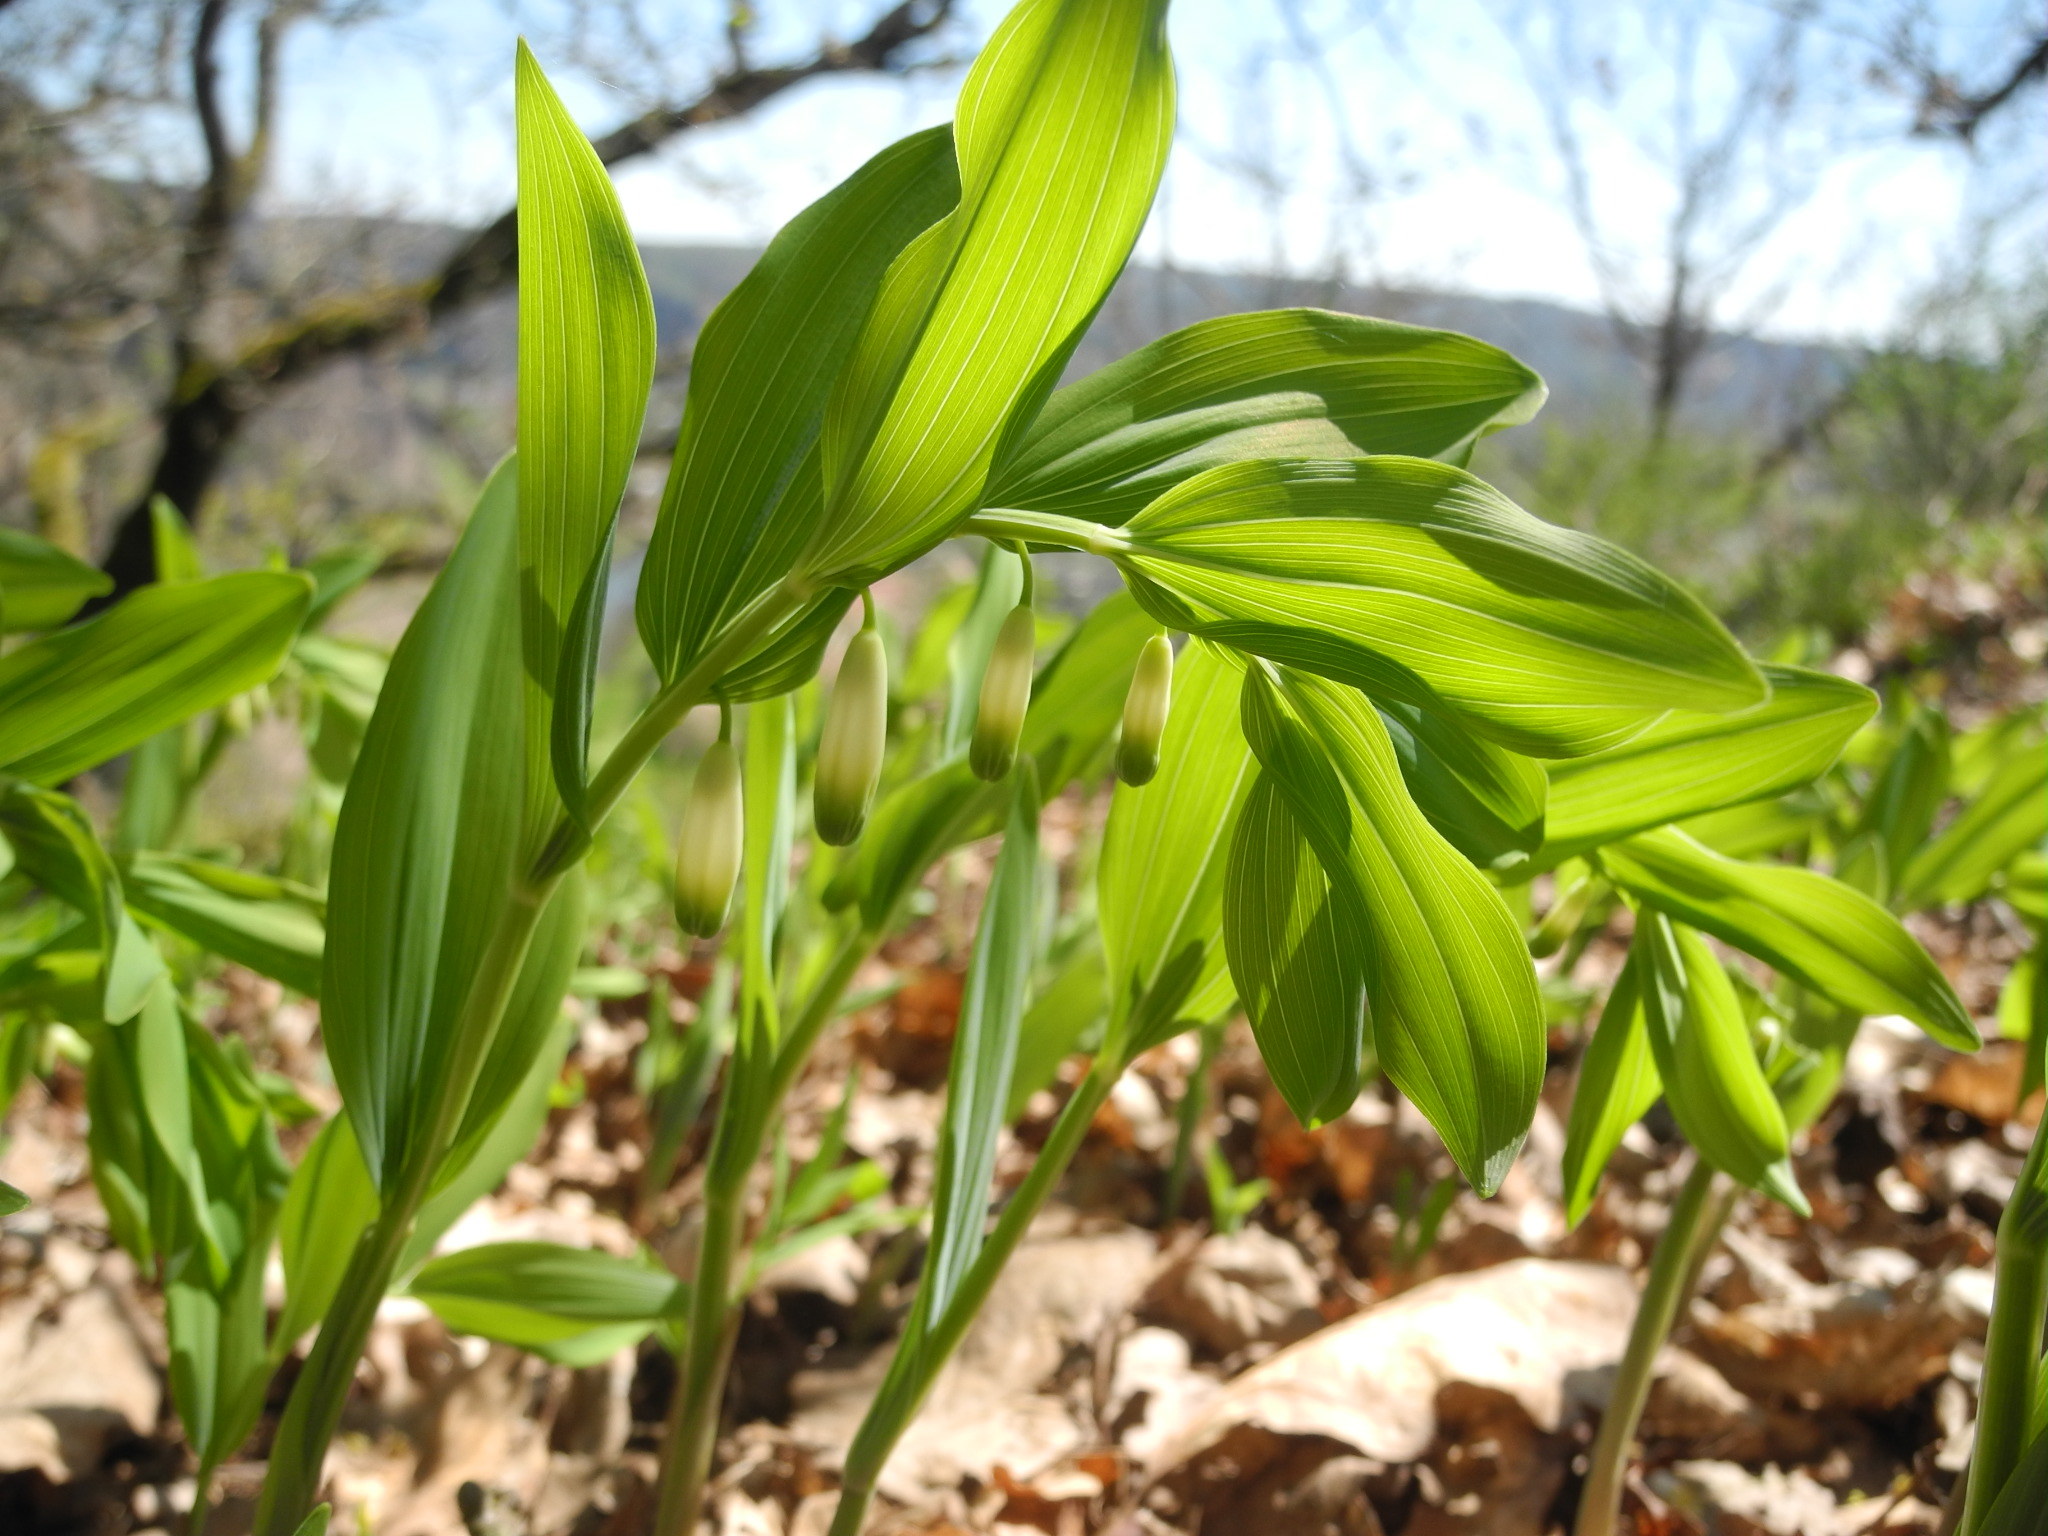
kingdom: Plantae
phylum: Tracheophyta
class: Liliopsida
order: Asparagales
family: Asparagaceae
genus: Polygonatum
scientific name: Polygonatum odoratum
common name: Angular solomon's-seal
